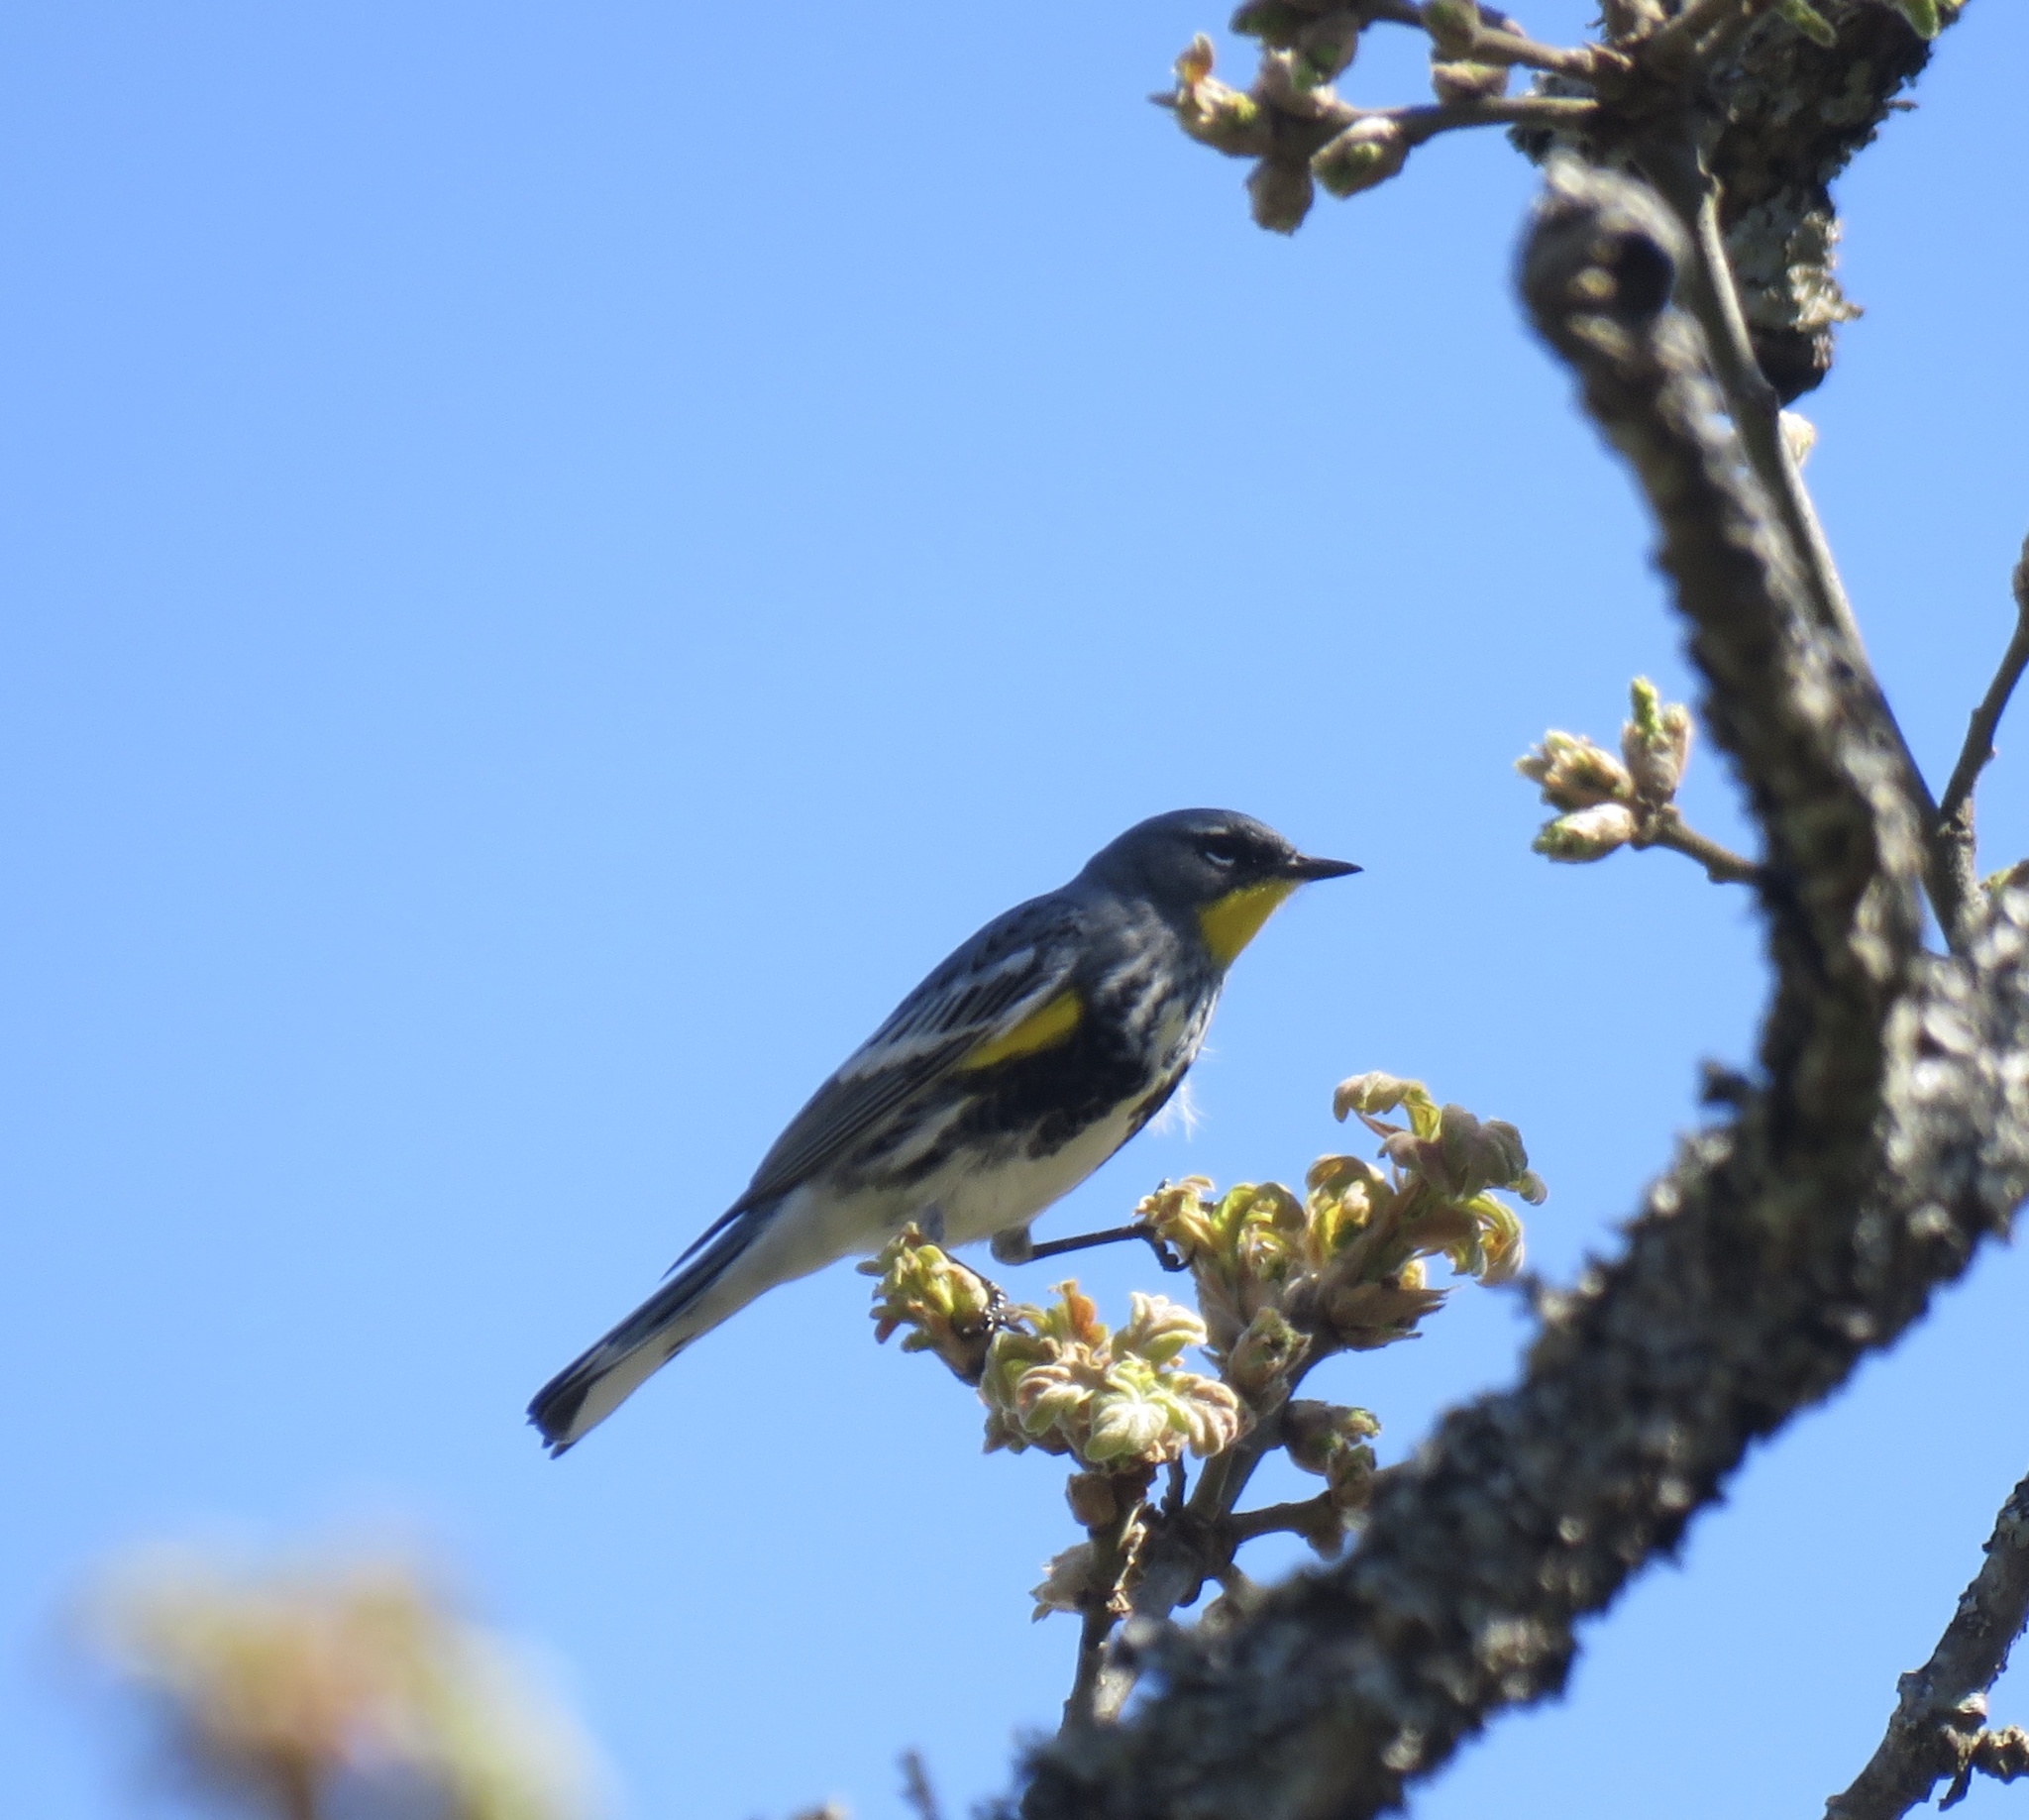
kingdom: Animalia
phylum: Chordata
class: Aves
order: Passeriformes
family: Parulidae
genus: Setophaga
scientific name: Setophaga coronata
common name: Myrtle warbler
